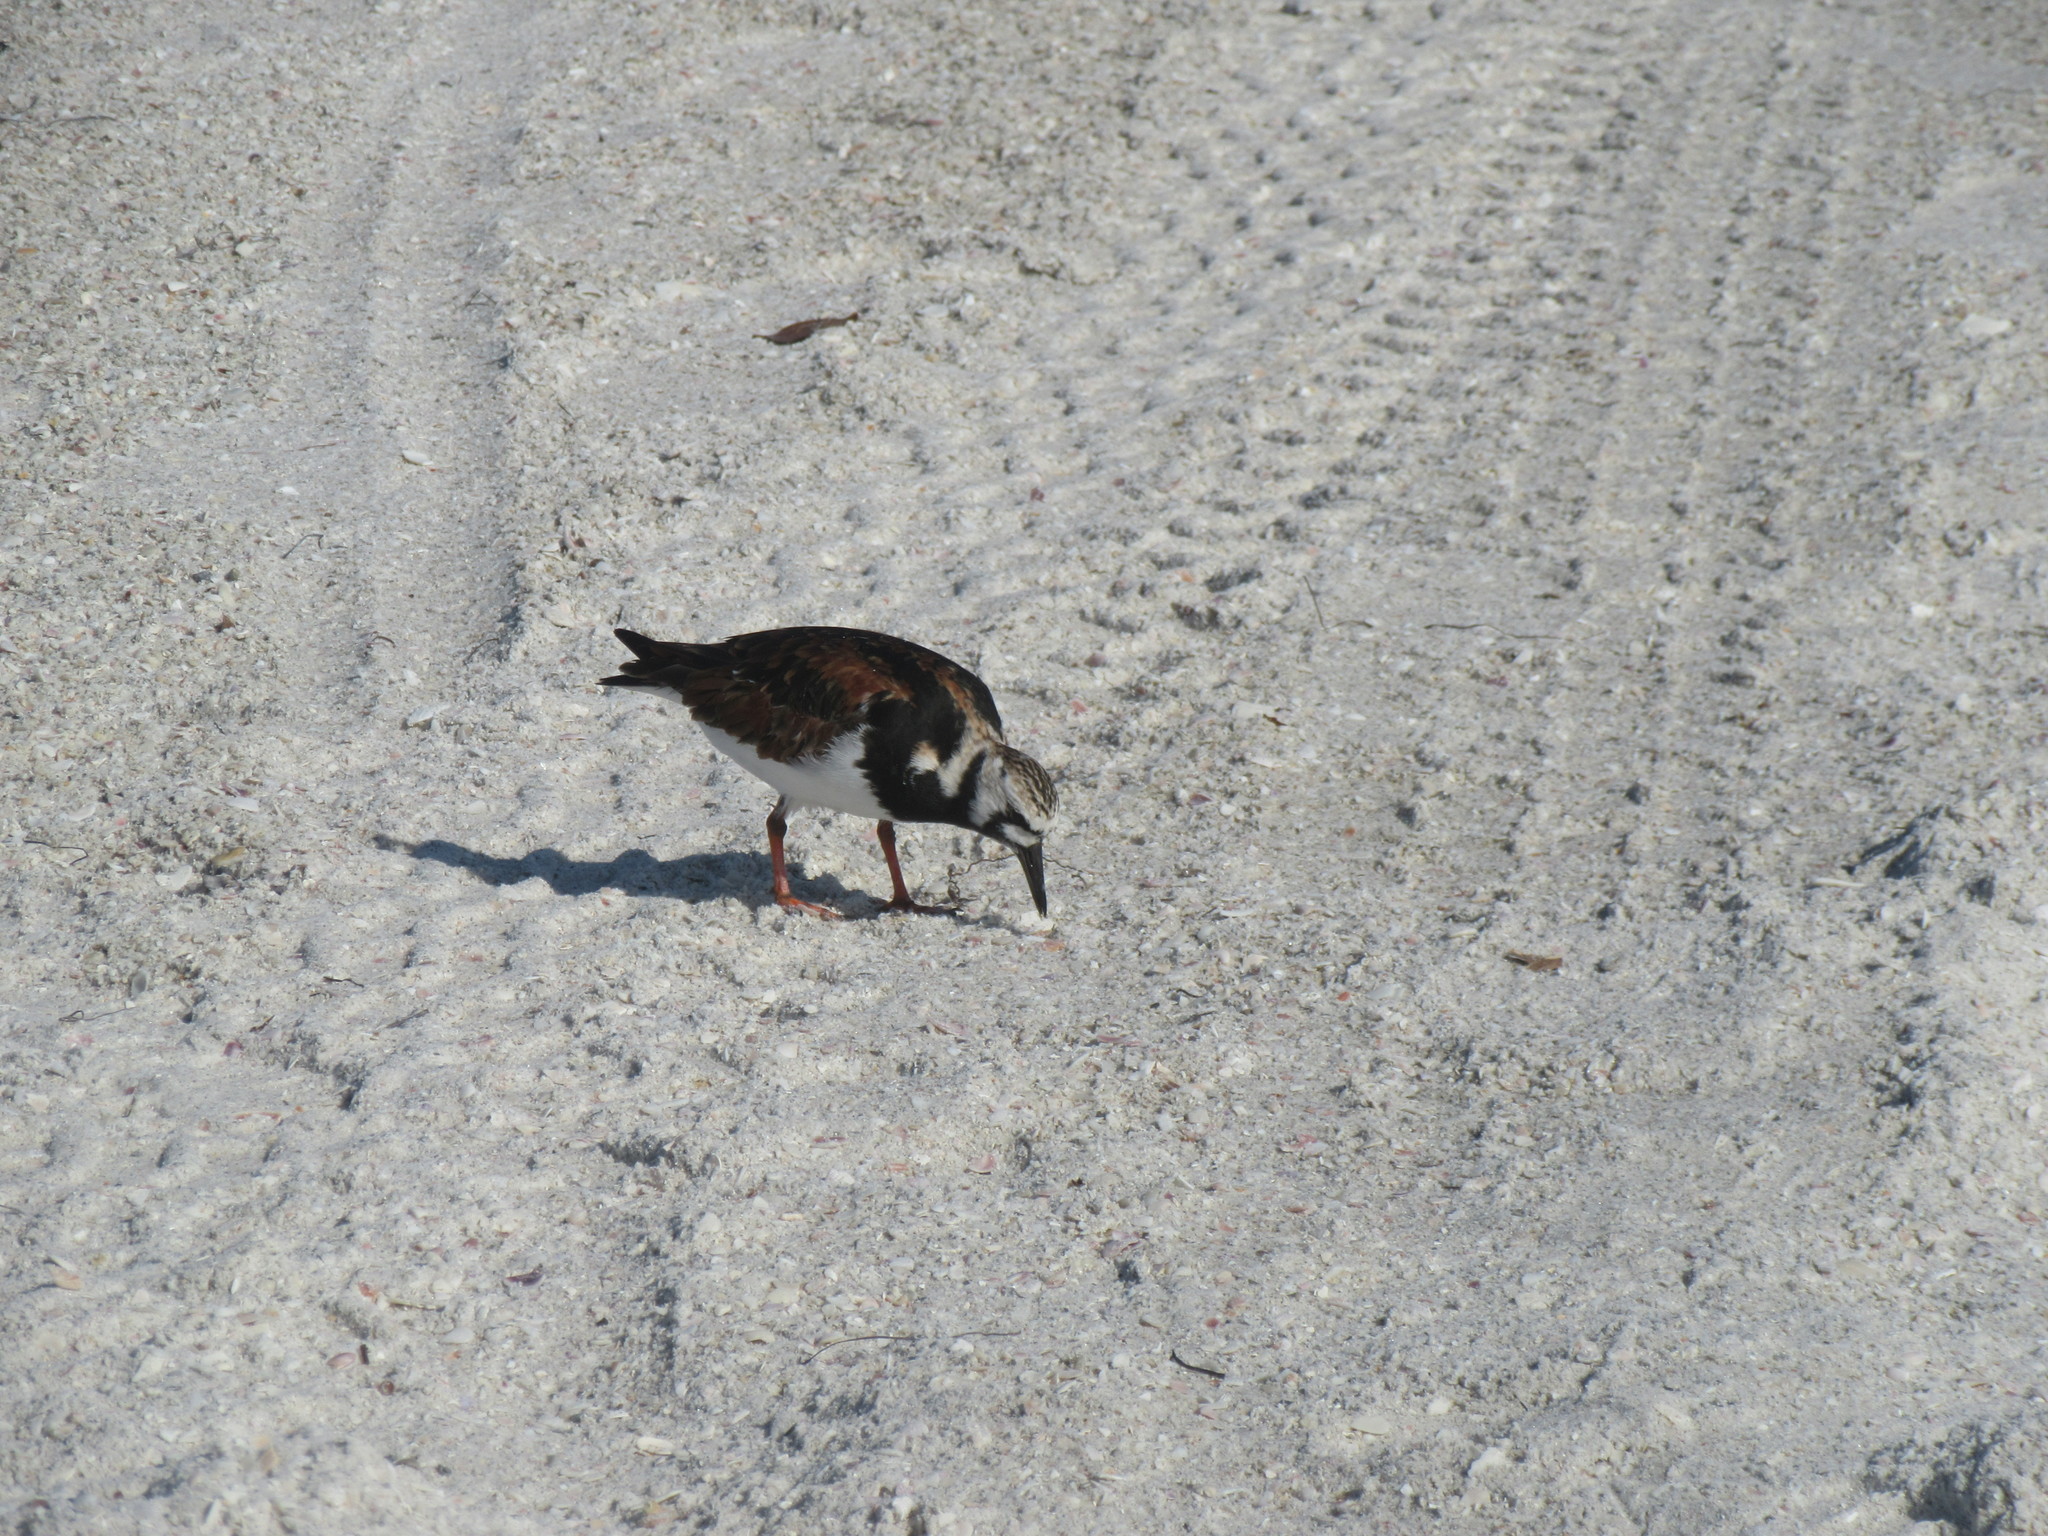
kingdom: Animalia
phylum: Chordata
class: Aves
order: Charadriiformes
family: Scolopacidae
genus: Arenaria
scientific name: Arenaria interpres
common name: Ruddy turnstone
